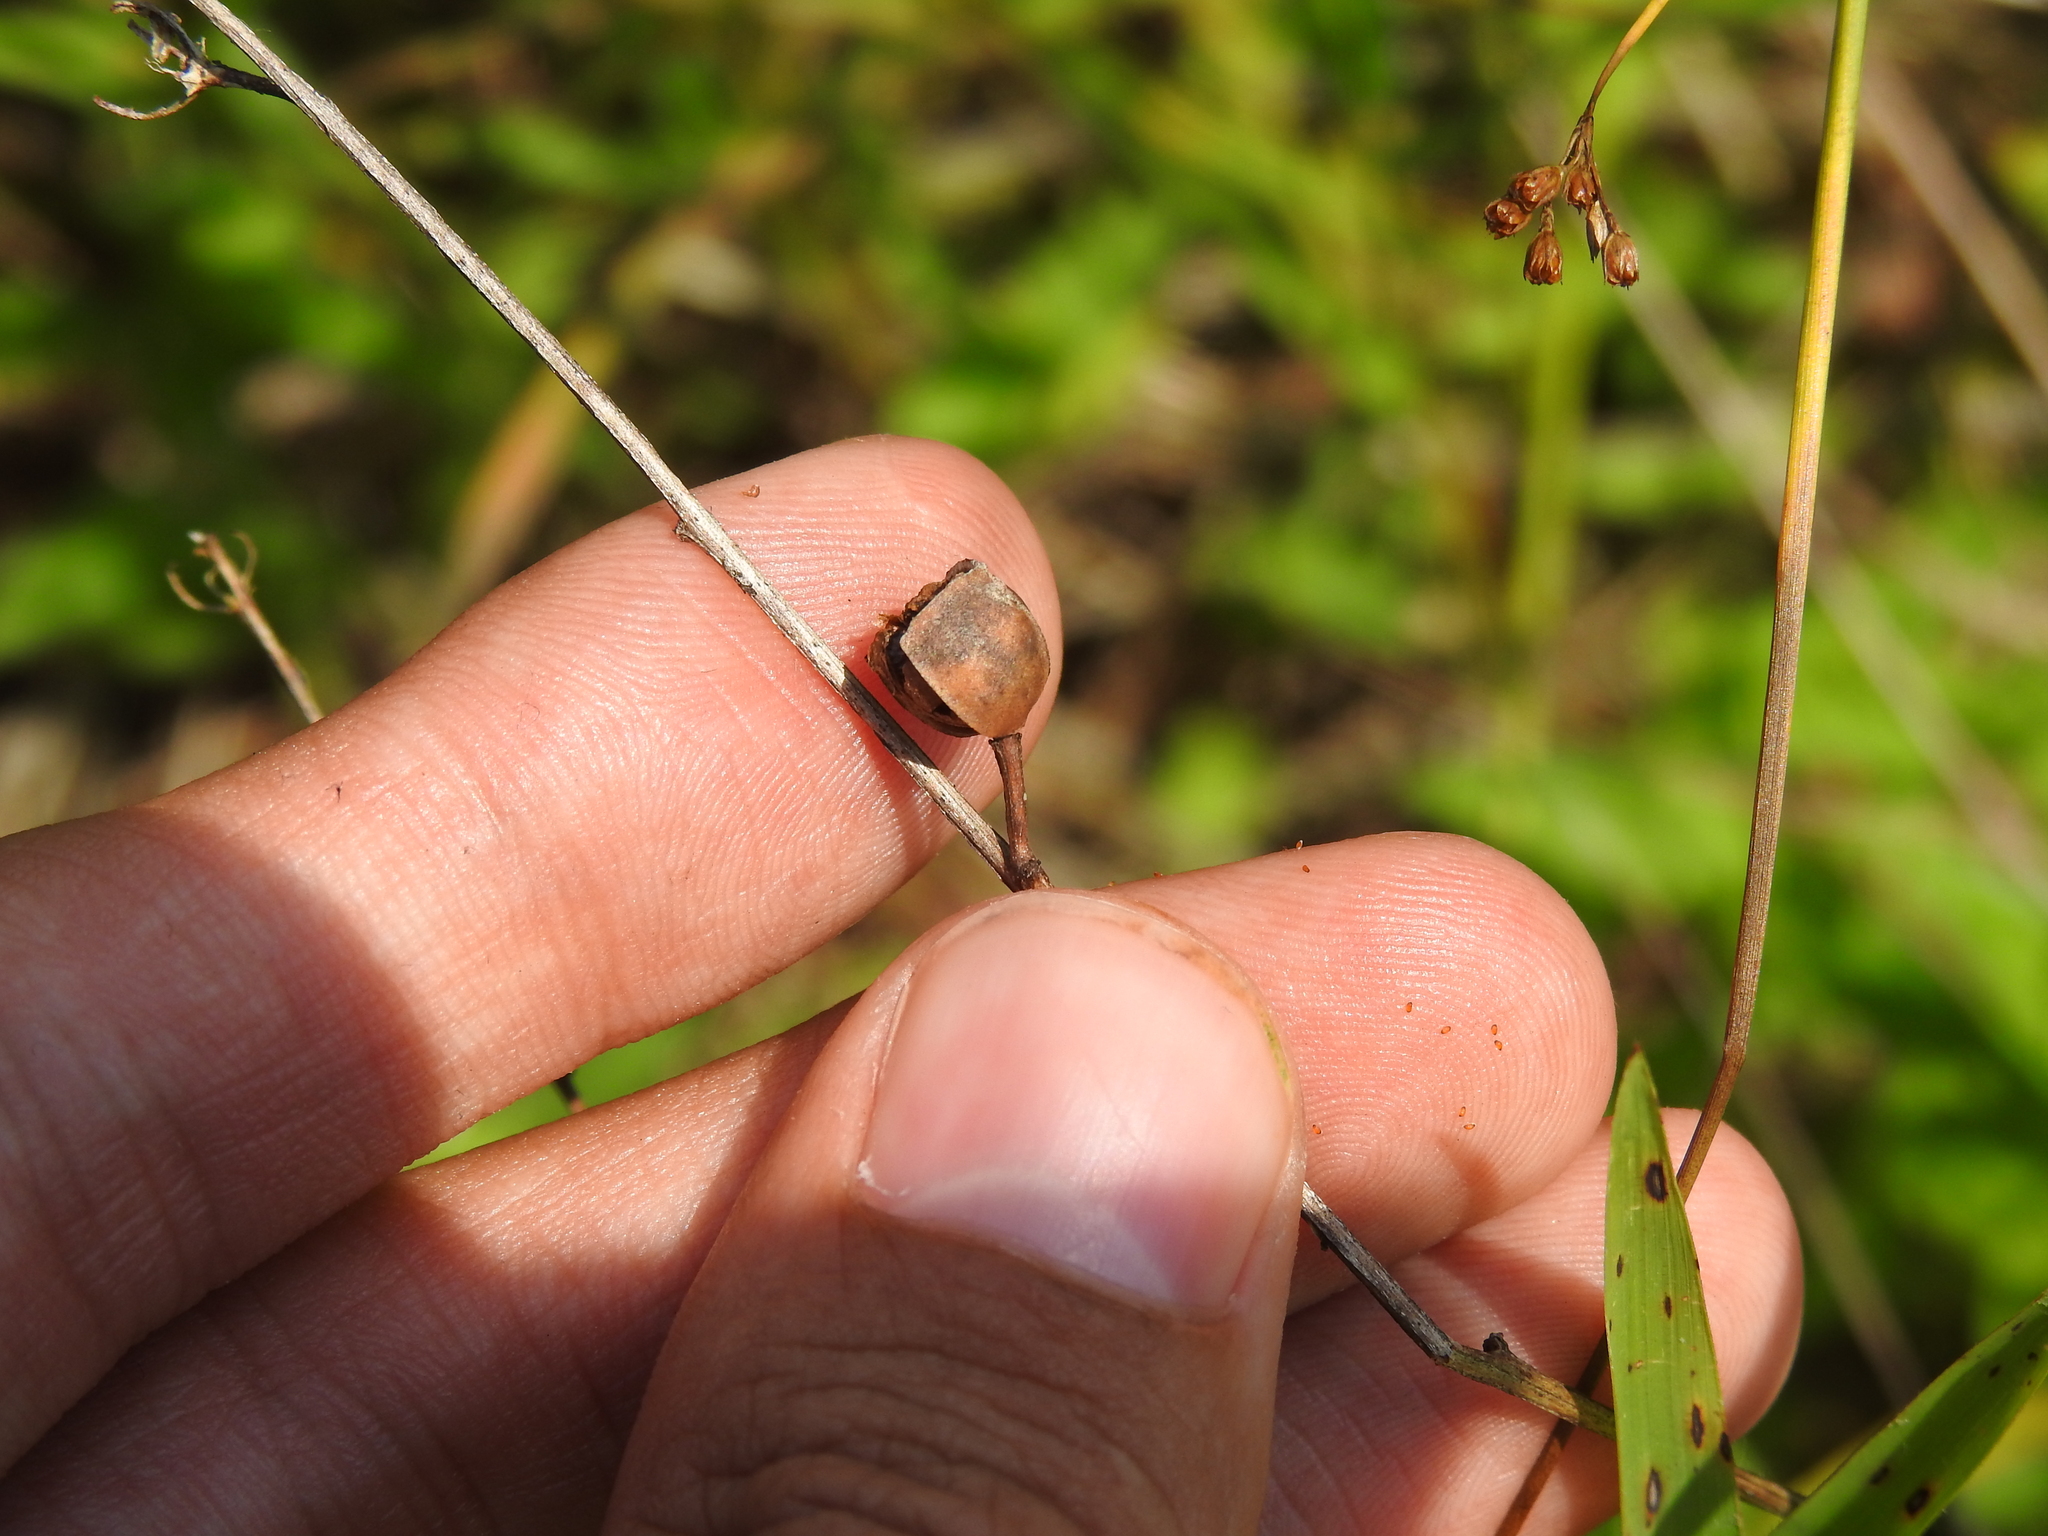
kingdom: Plantae
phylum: Tracheophyta
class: Magnoliopsida
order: Myrtales
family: Onagraceae
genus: Ludwigia
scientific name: Ludwigia alternifolia
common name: Rattlebox
